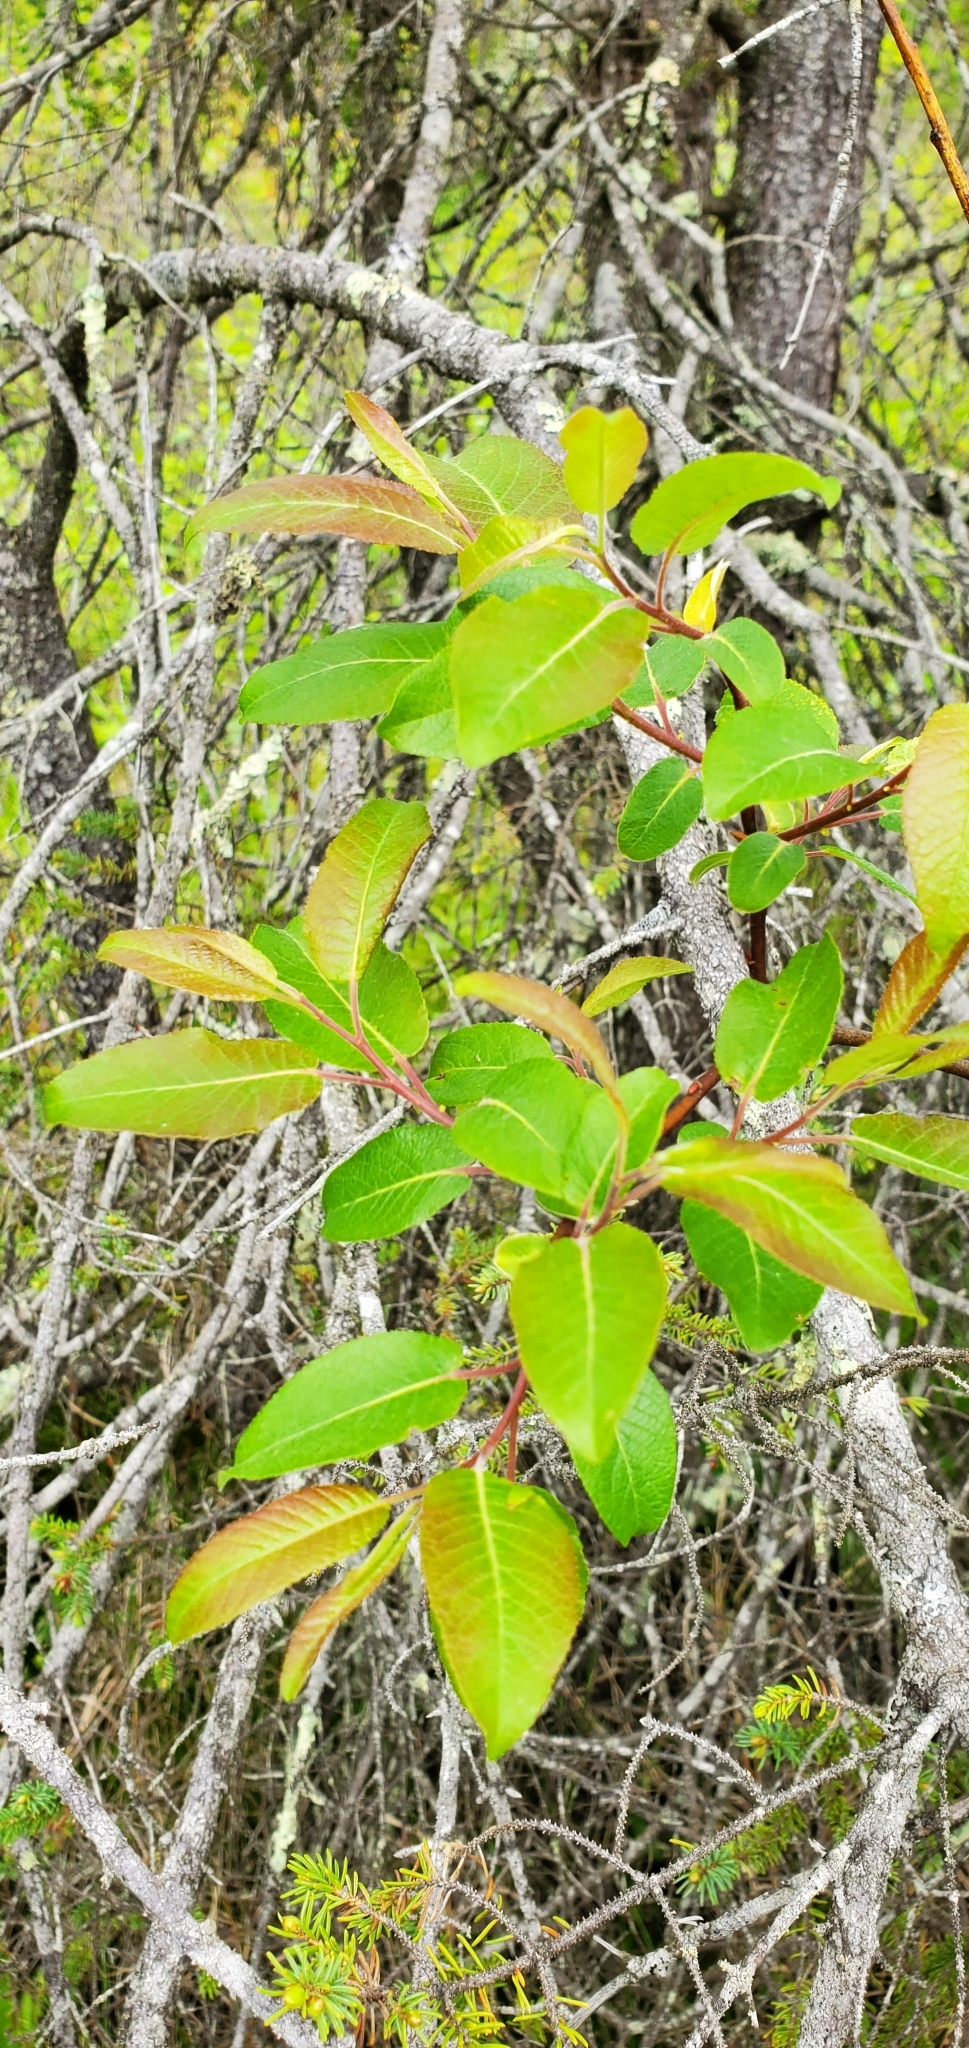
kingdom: Plantae
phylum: Tracheophyta
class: Magnoliopsida
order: Malpighiales
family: Salicaceae
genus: Salix
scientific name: Salix pyrifolia
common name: Balsam willow
